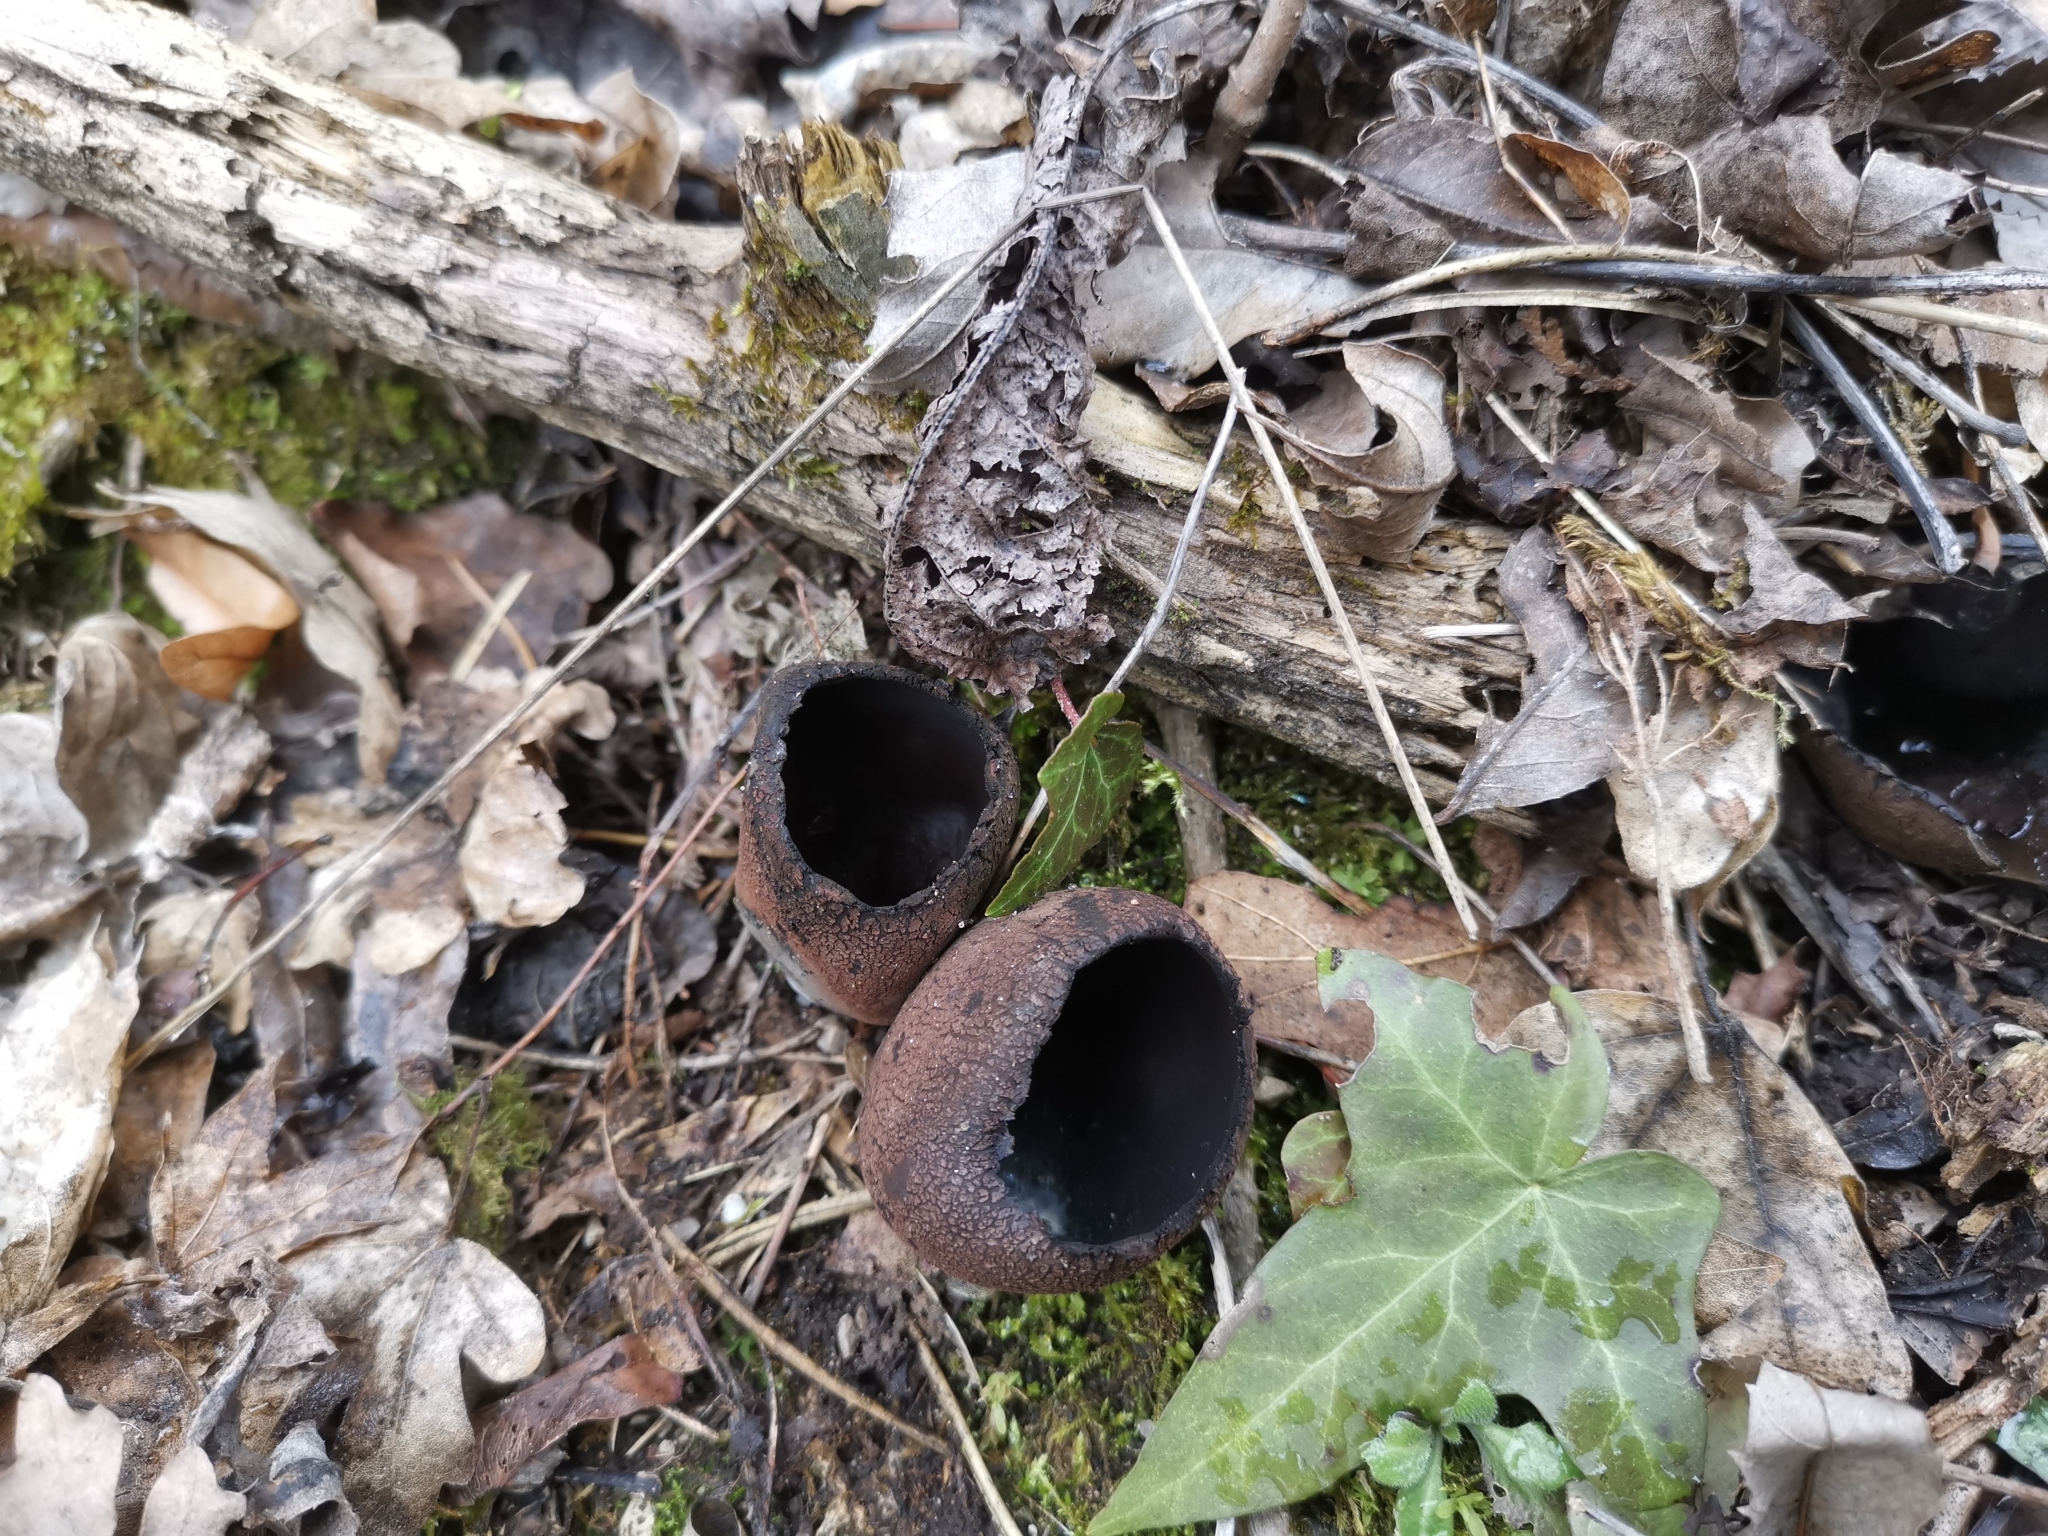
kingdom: Fungi
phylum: Ascomycota
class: Pezizomycetes
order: Pezizales
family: Sarcosomataceae
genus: Urnula
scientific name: Urnula craterium
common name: Devil's urn
